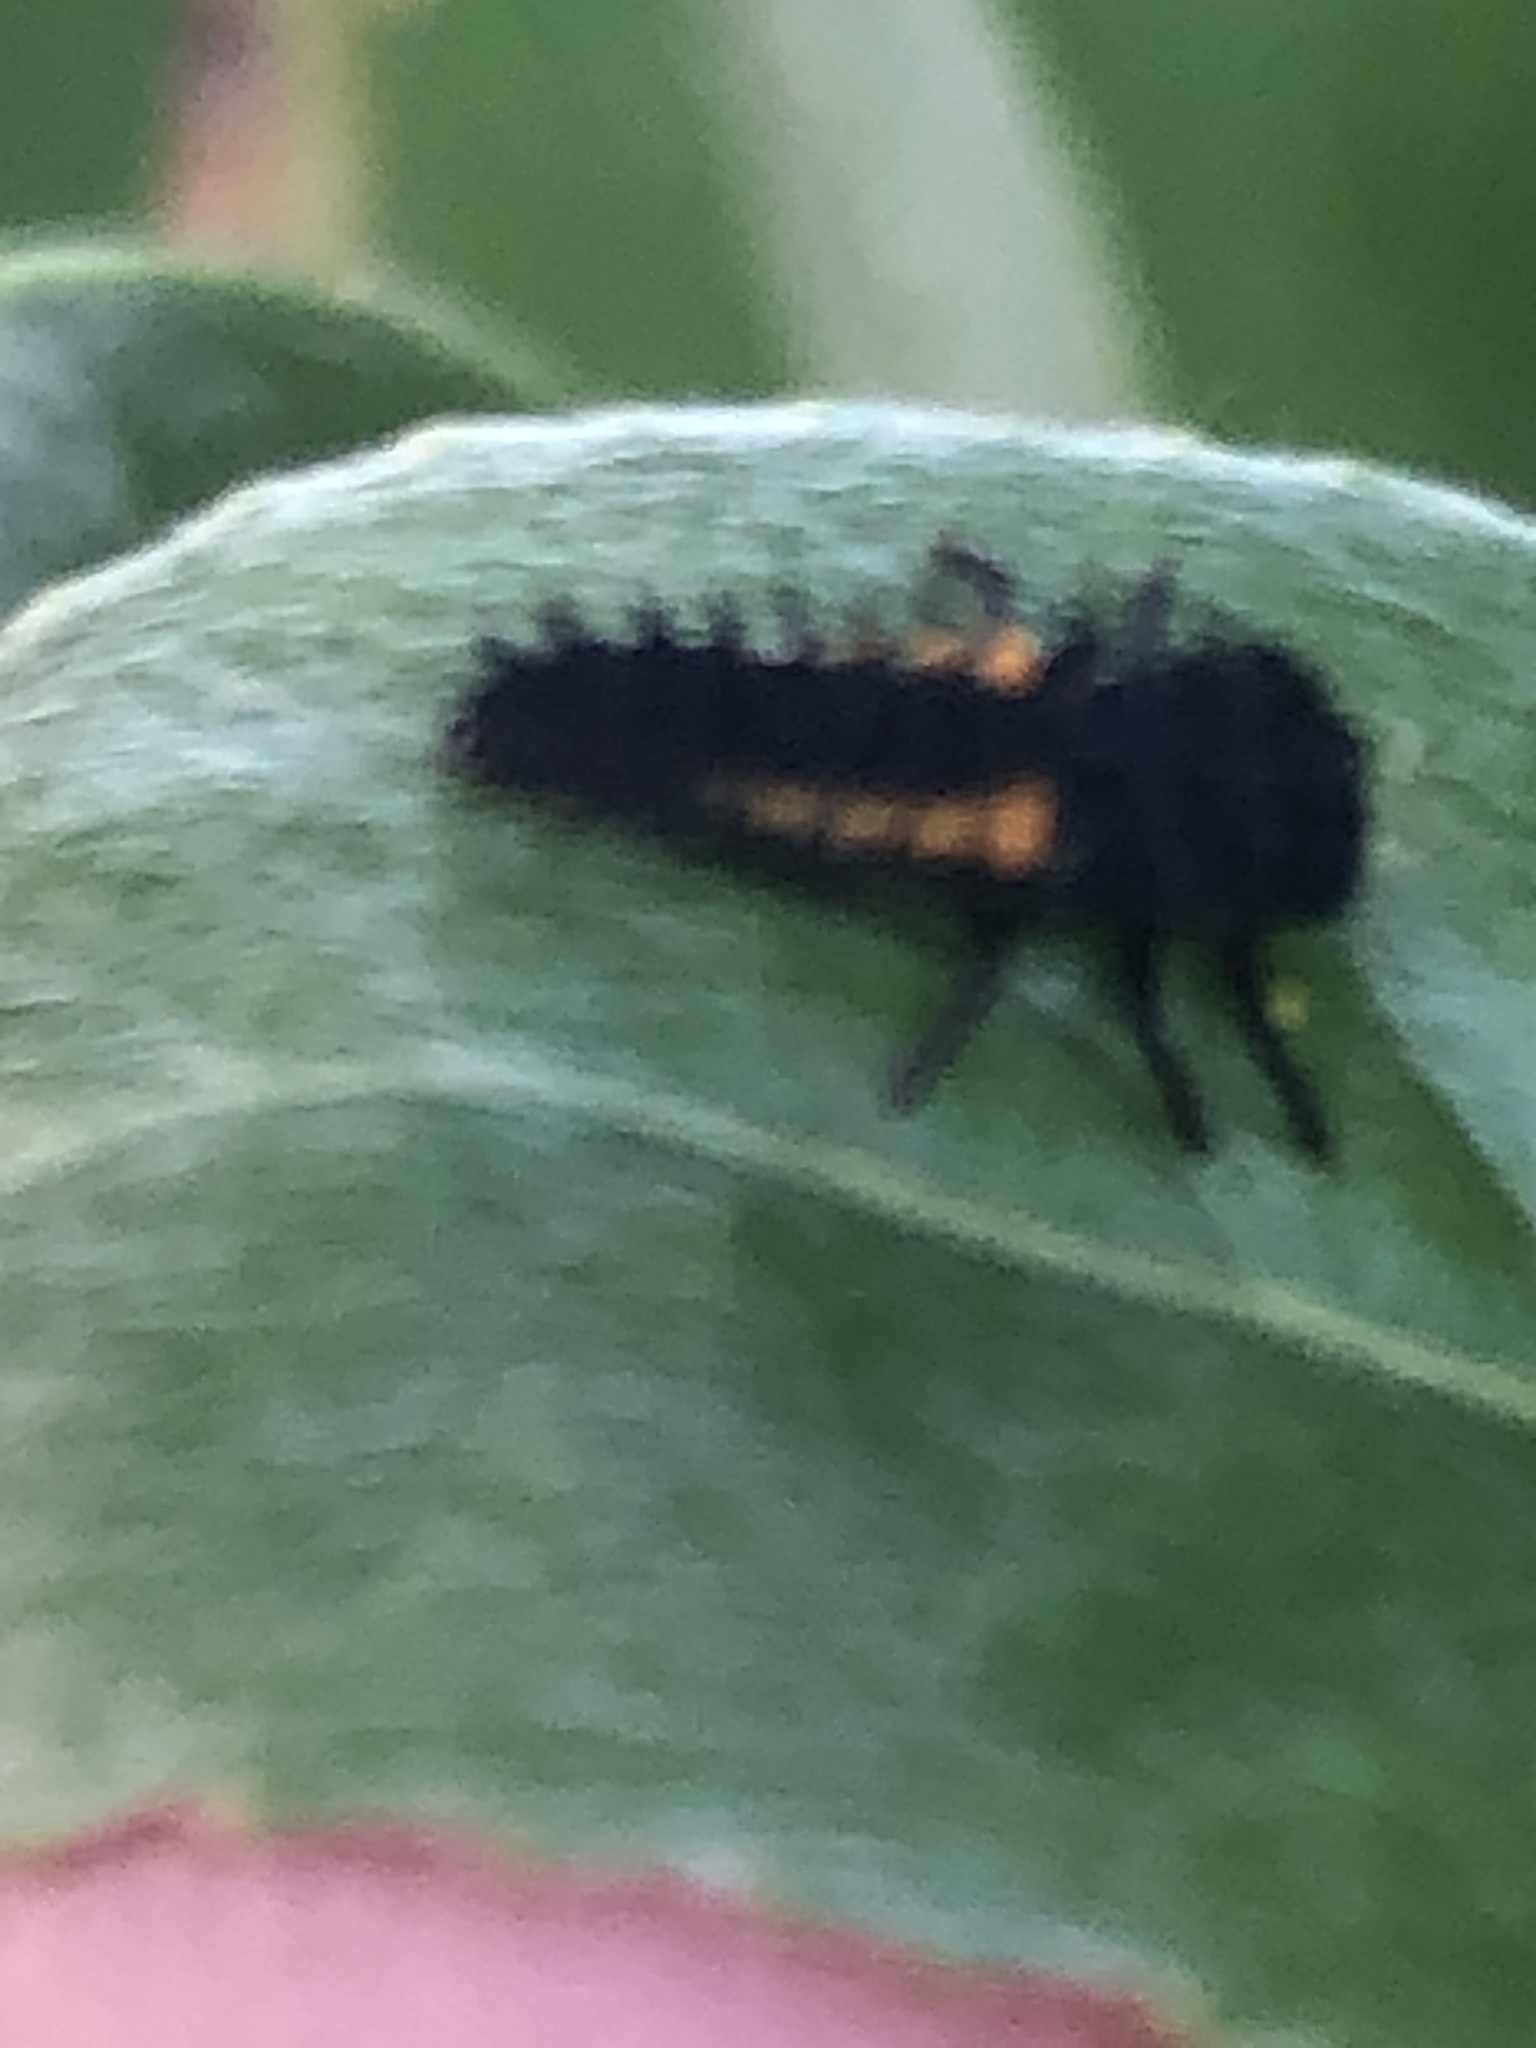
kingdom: Animalia
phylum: Arthropoda
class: Insecta
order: Coleoptera
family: Coccinellidae
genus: Harmonia
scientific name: Harmonia axyridis
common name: Harlequin ladybird
